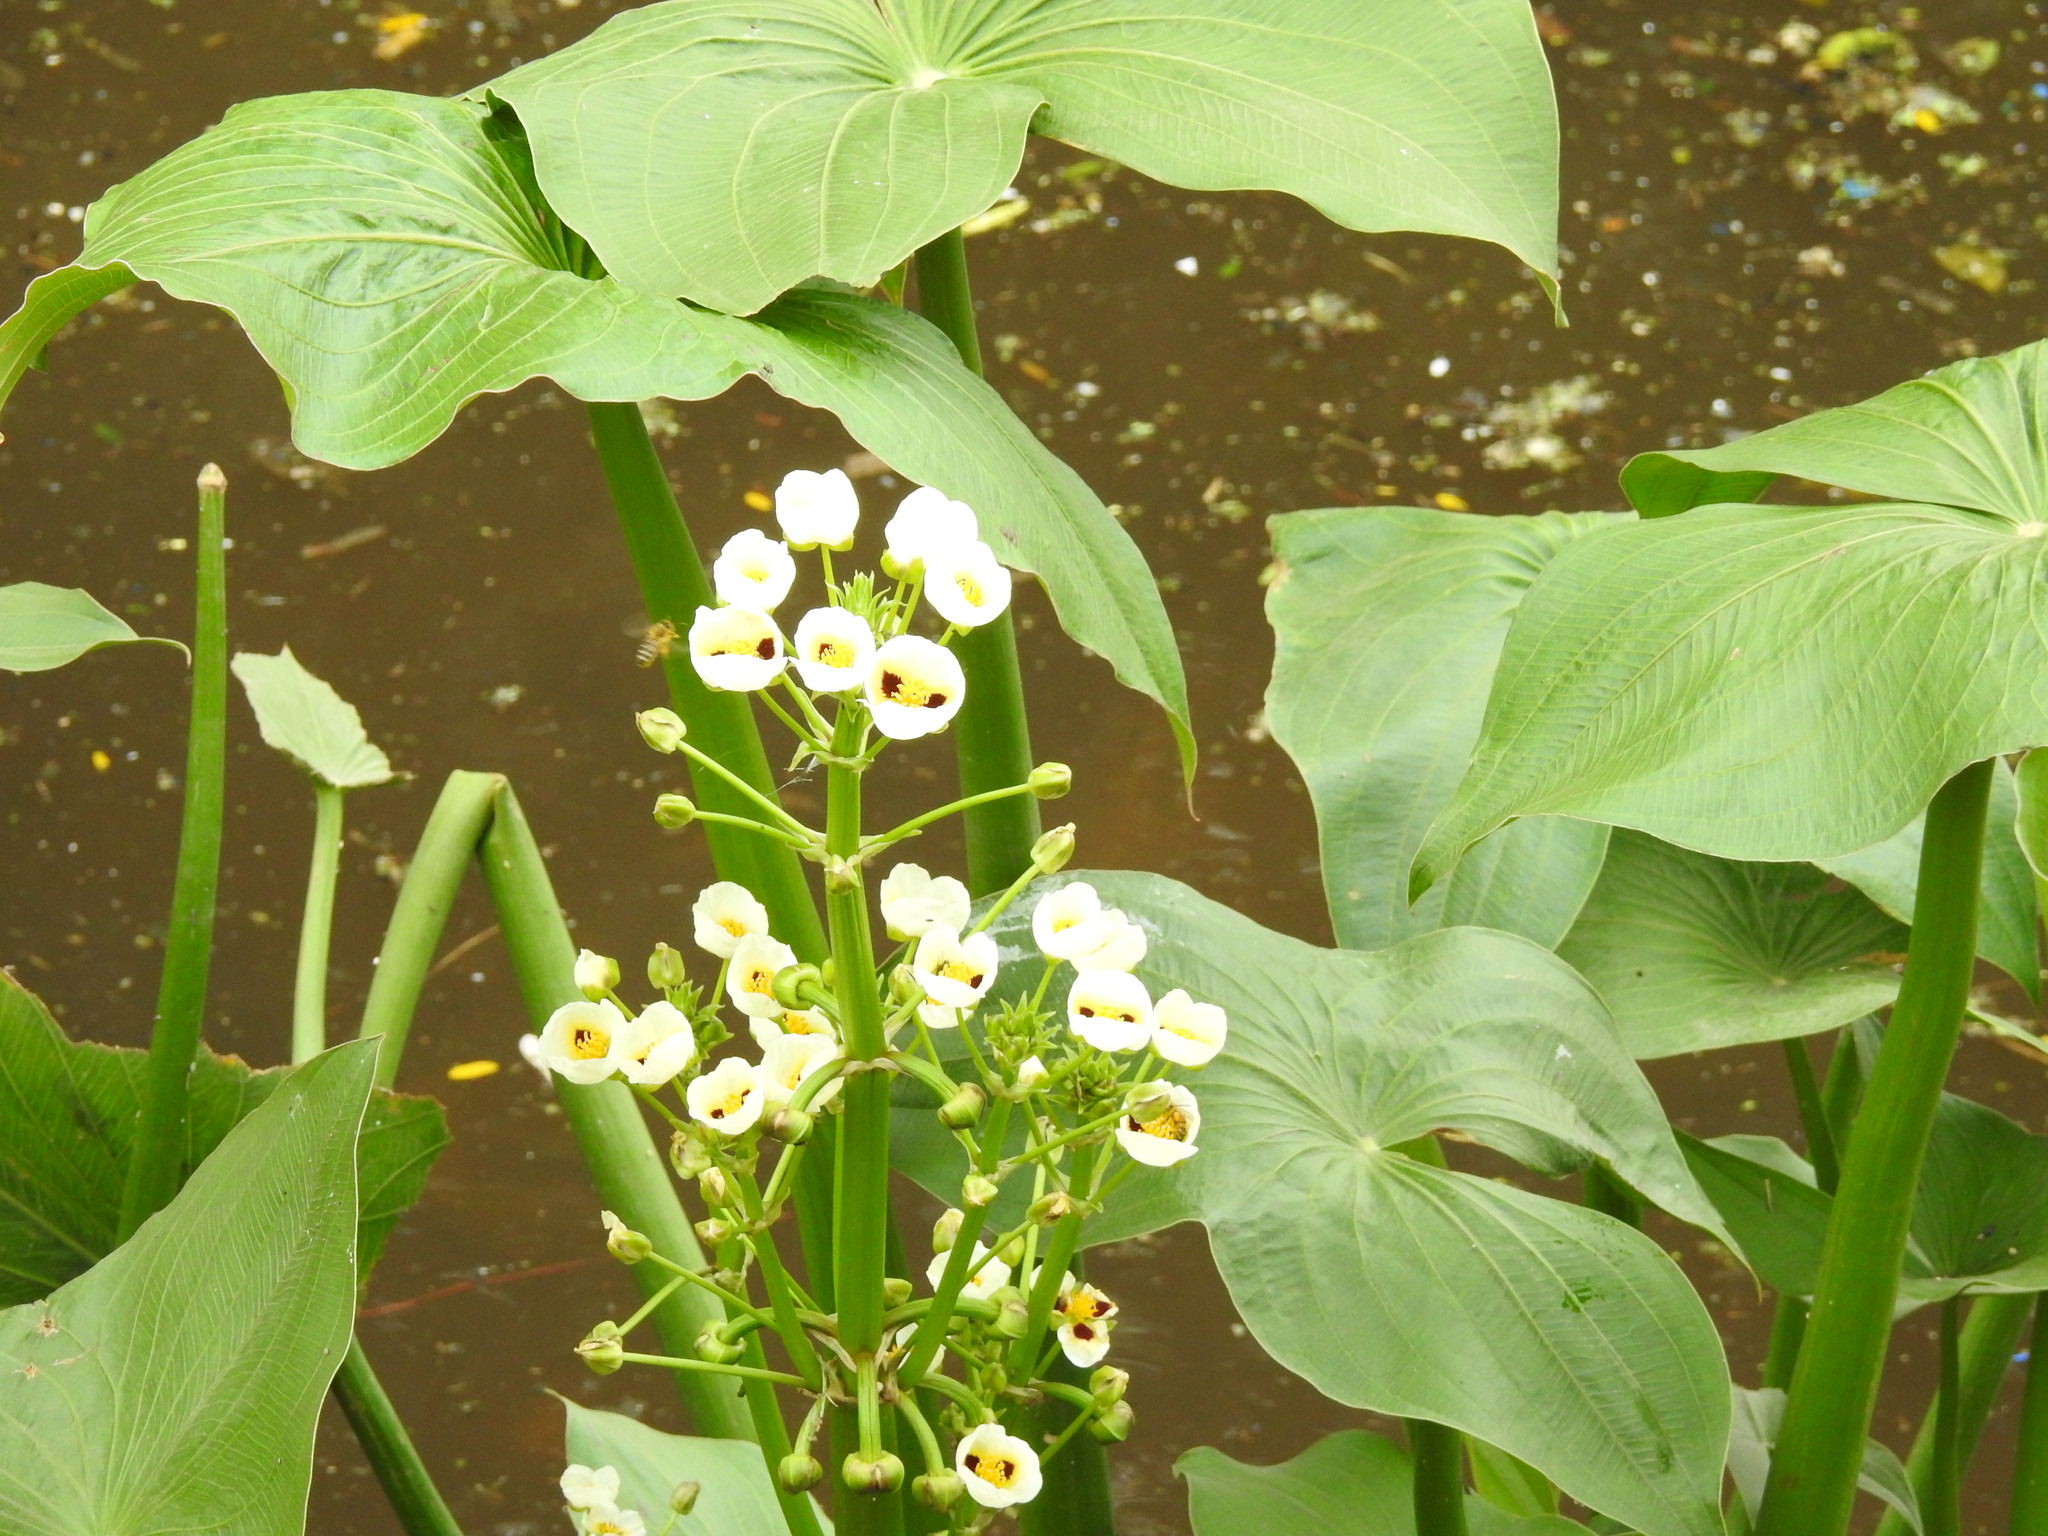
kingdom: Plantae
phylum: Tracheophyta
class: Liliopsida
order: Alismatales
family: Alismataceae
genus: Sagittaria
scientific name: Sagittaria montevidensis
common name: Giant arrowhead
